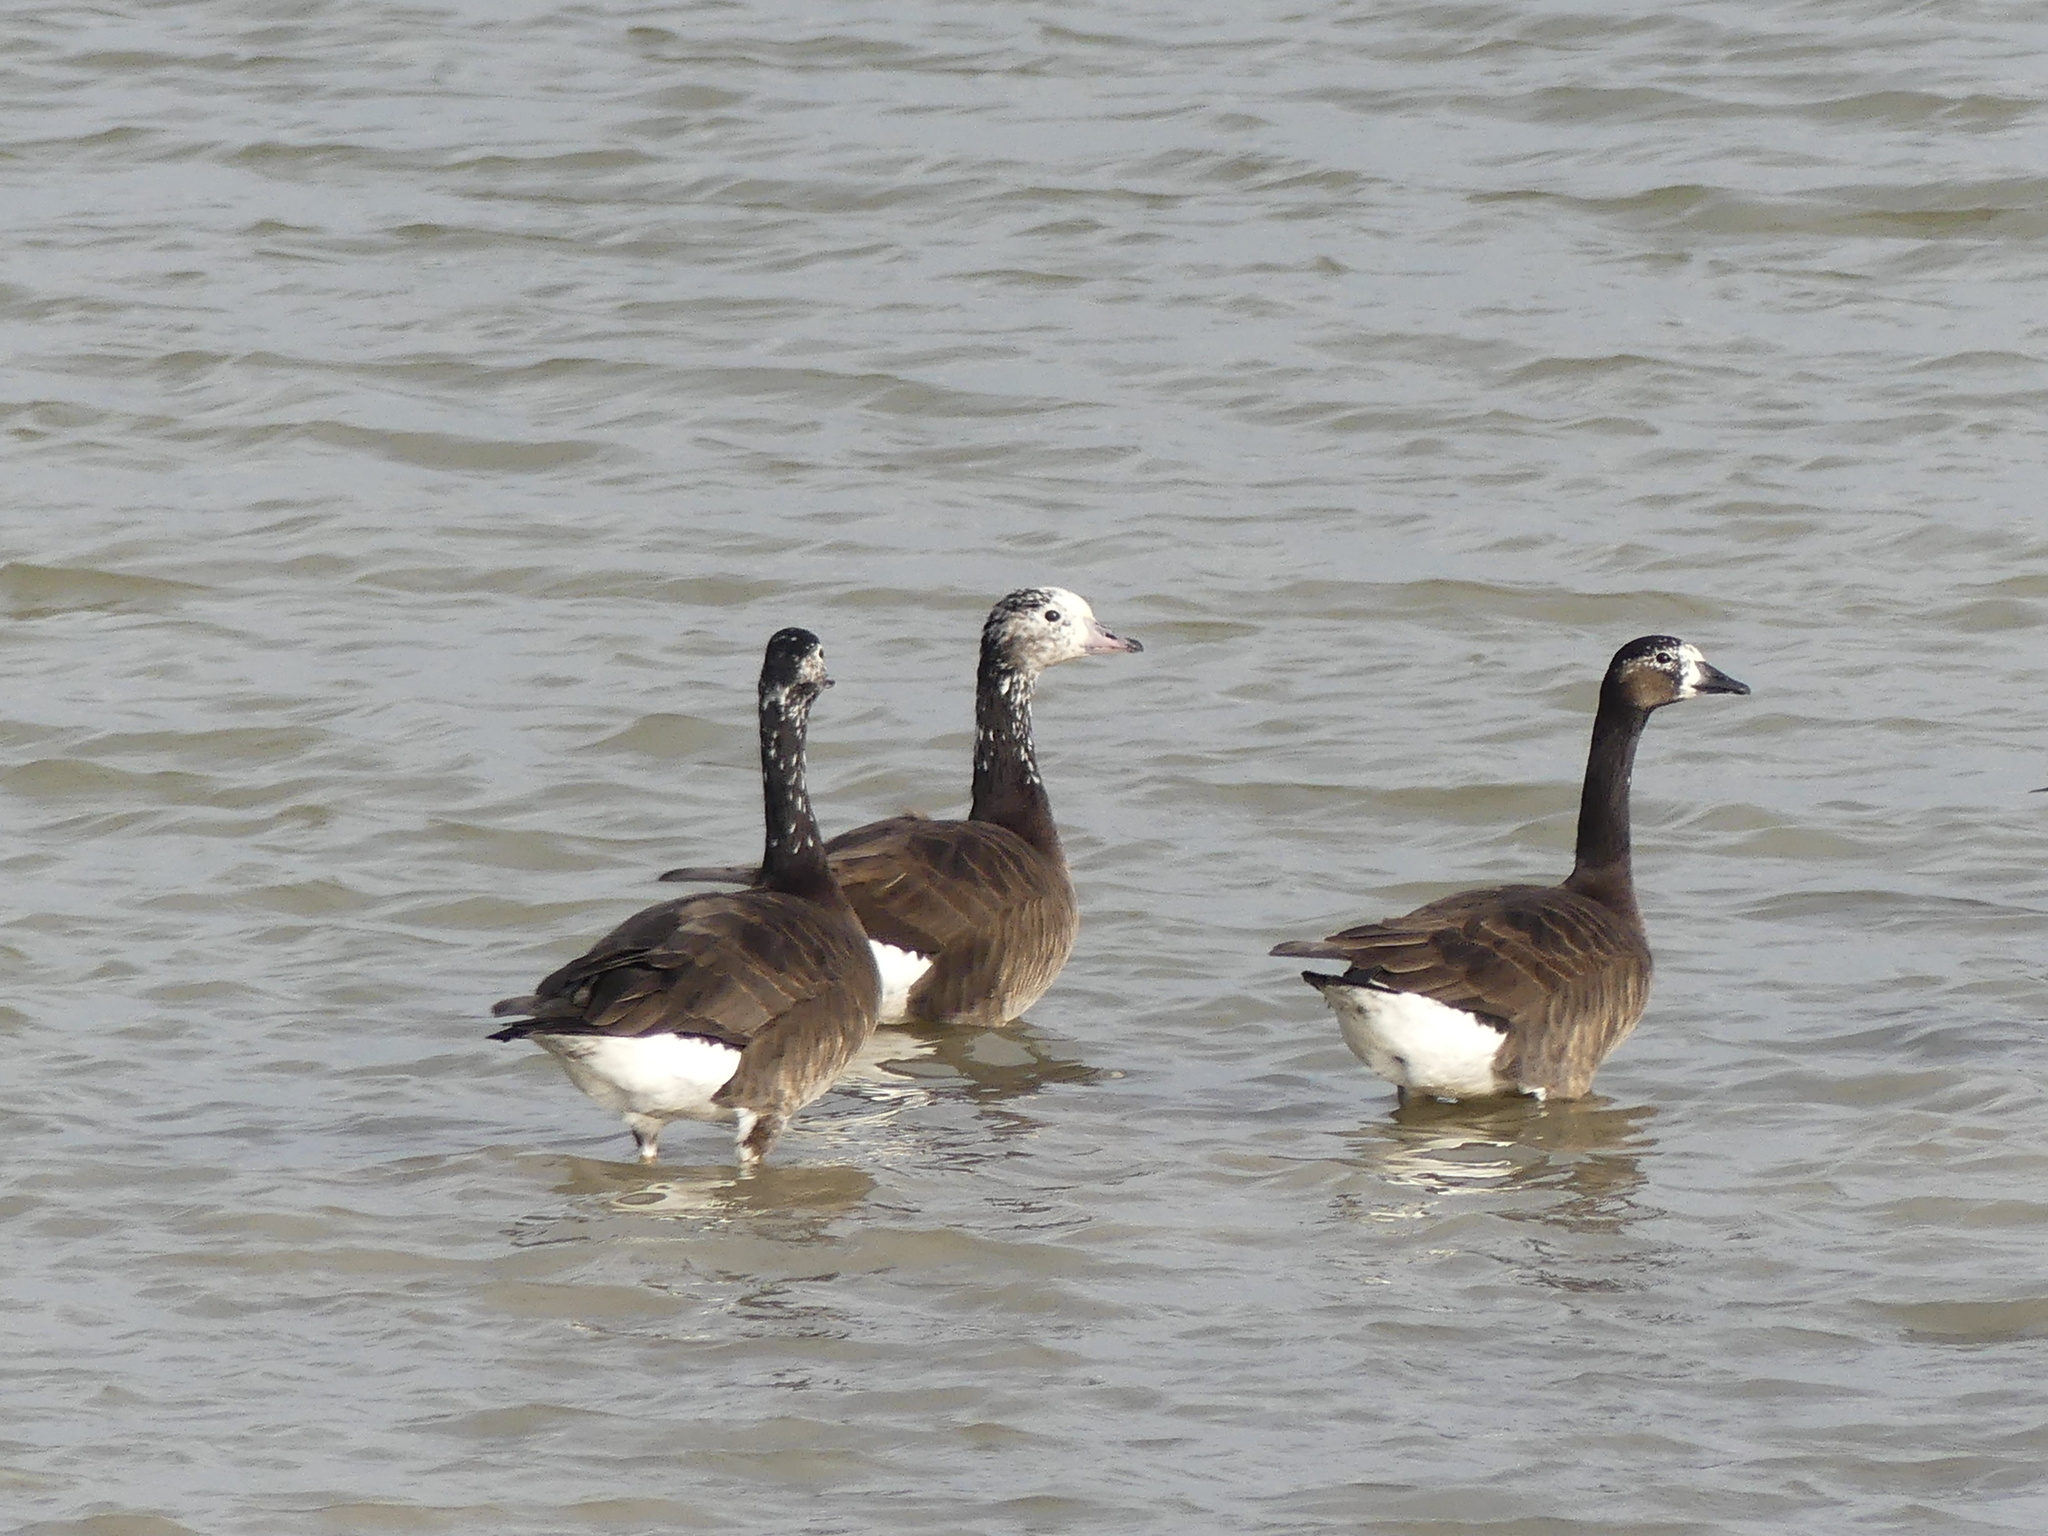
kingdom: Animalia
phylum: Chordata
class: Aves
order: Anseriformes
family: Anatidae
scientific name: Anatidae
